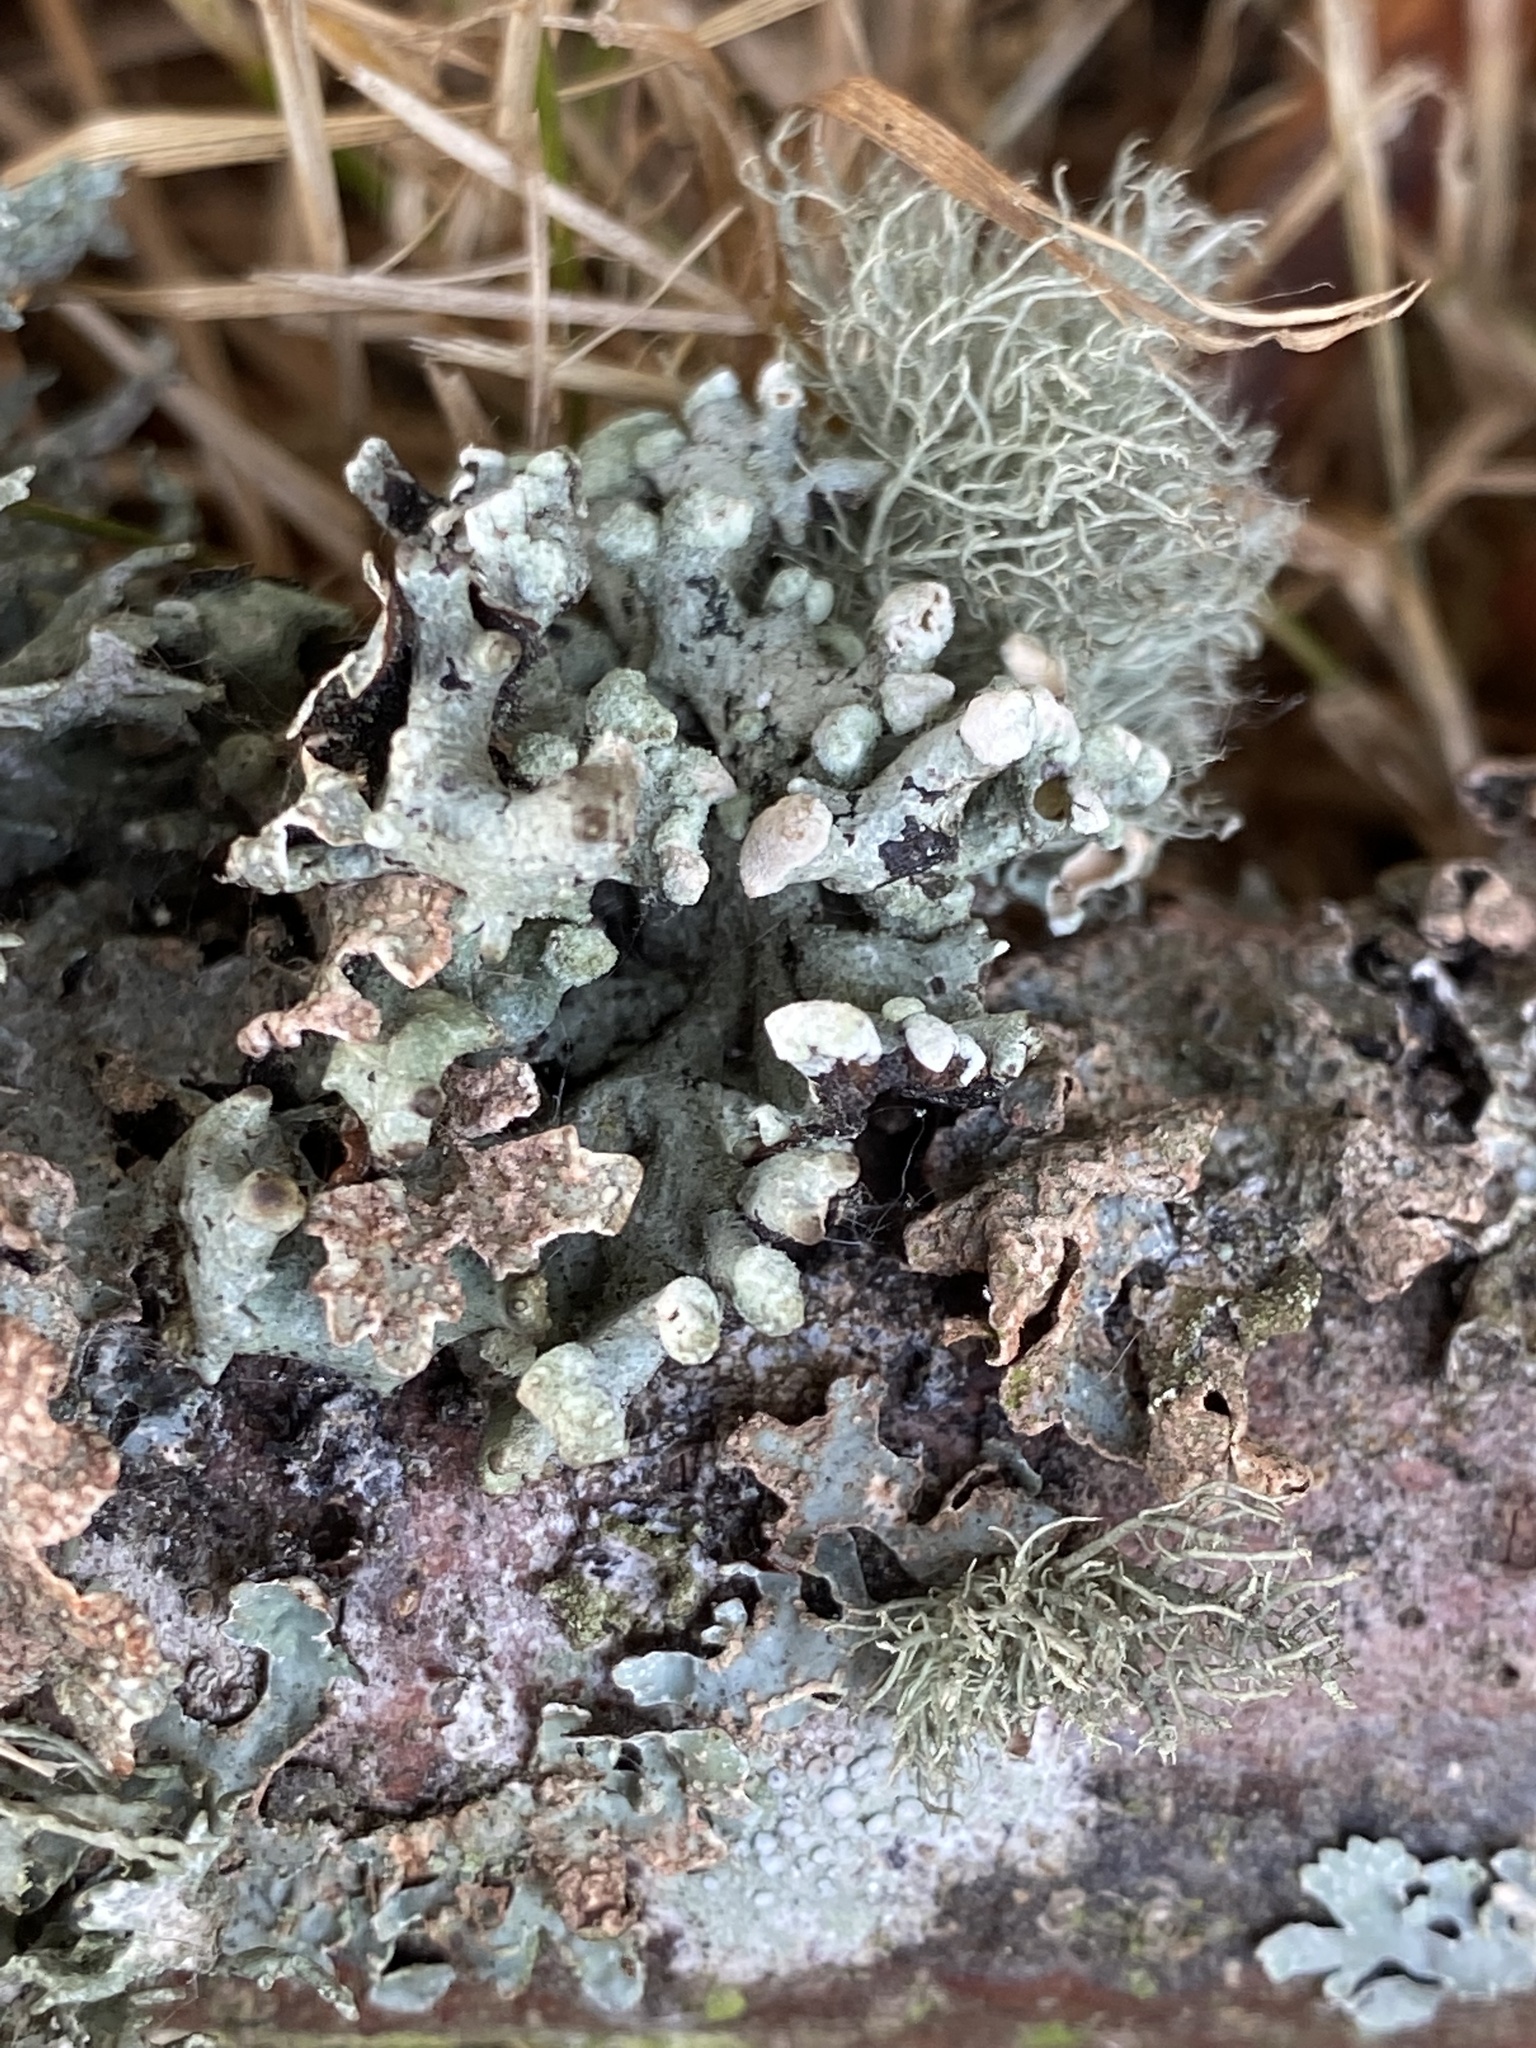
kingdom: Fungi
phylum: Ascomycota
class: Lecanoromycetes
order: Lecanorales
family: Parmeliaceae
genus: Hypogymnia
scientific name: Hypogymnia tubulosa
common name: Powder-headed tube lichen
